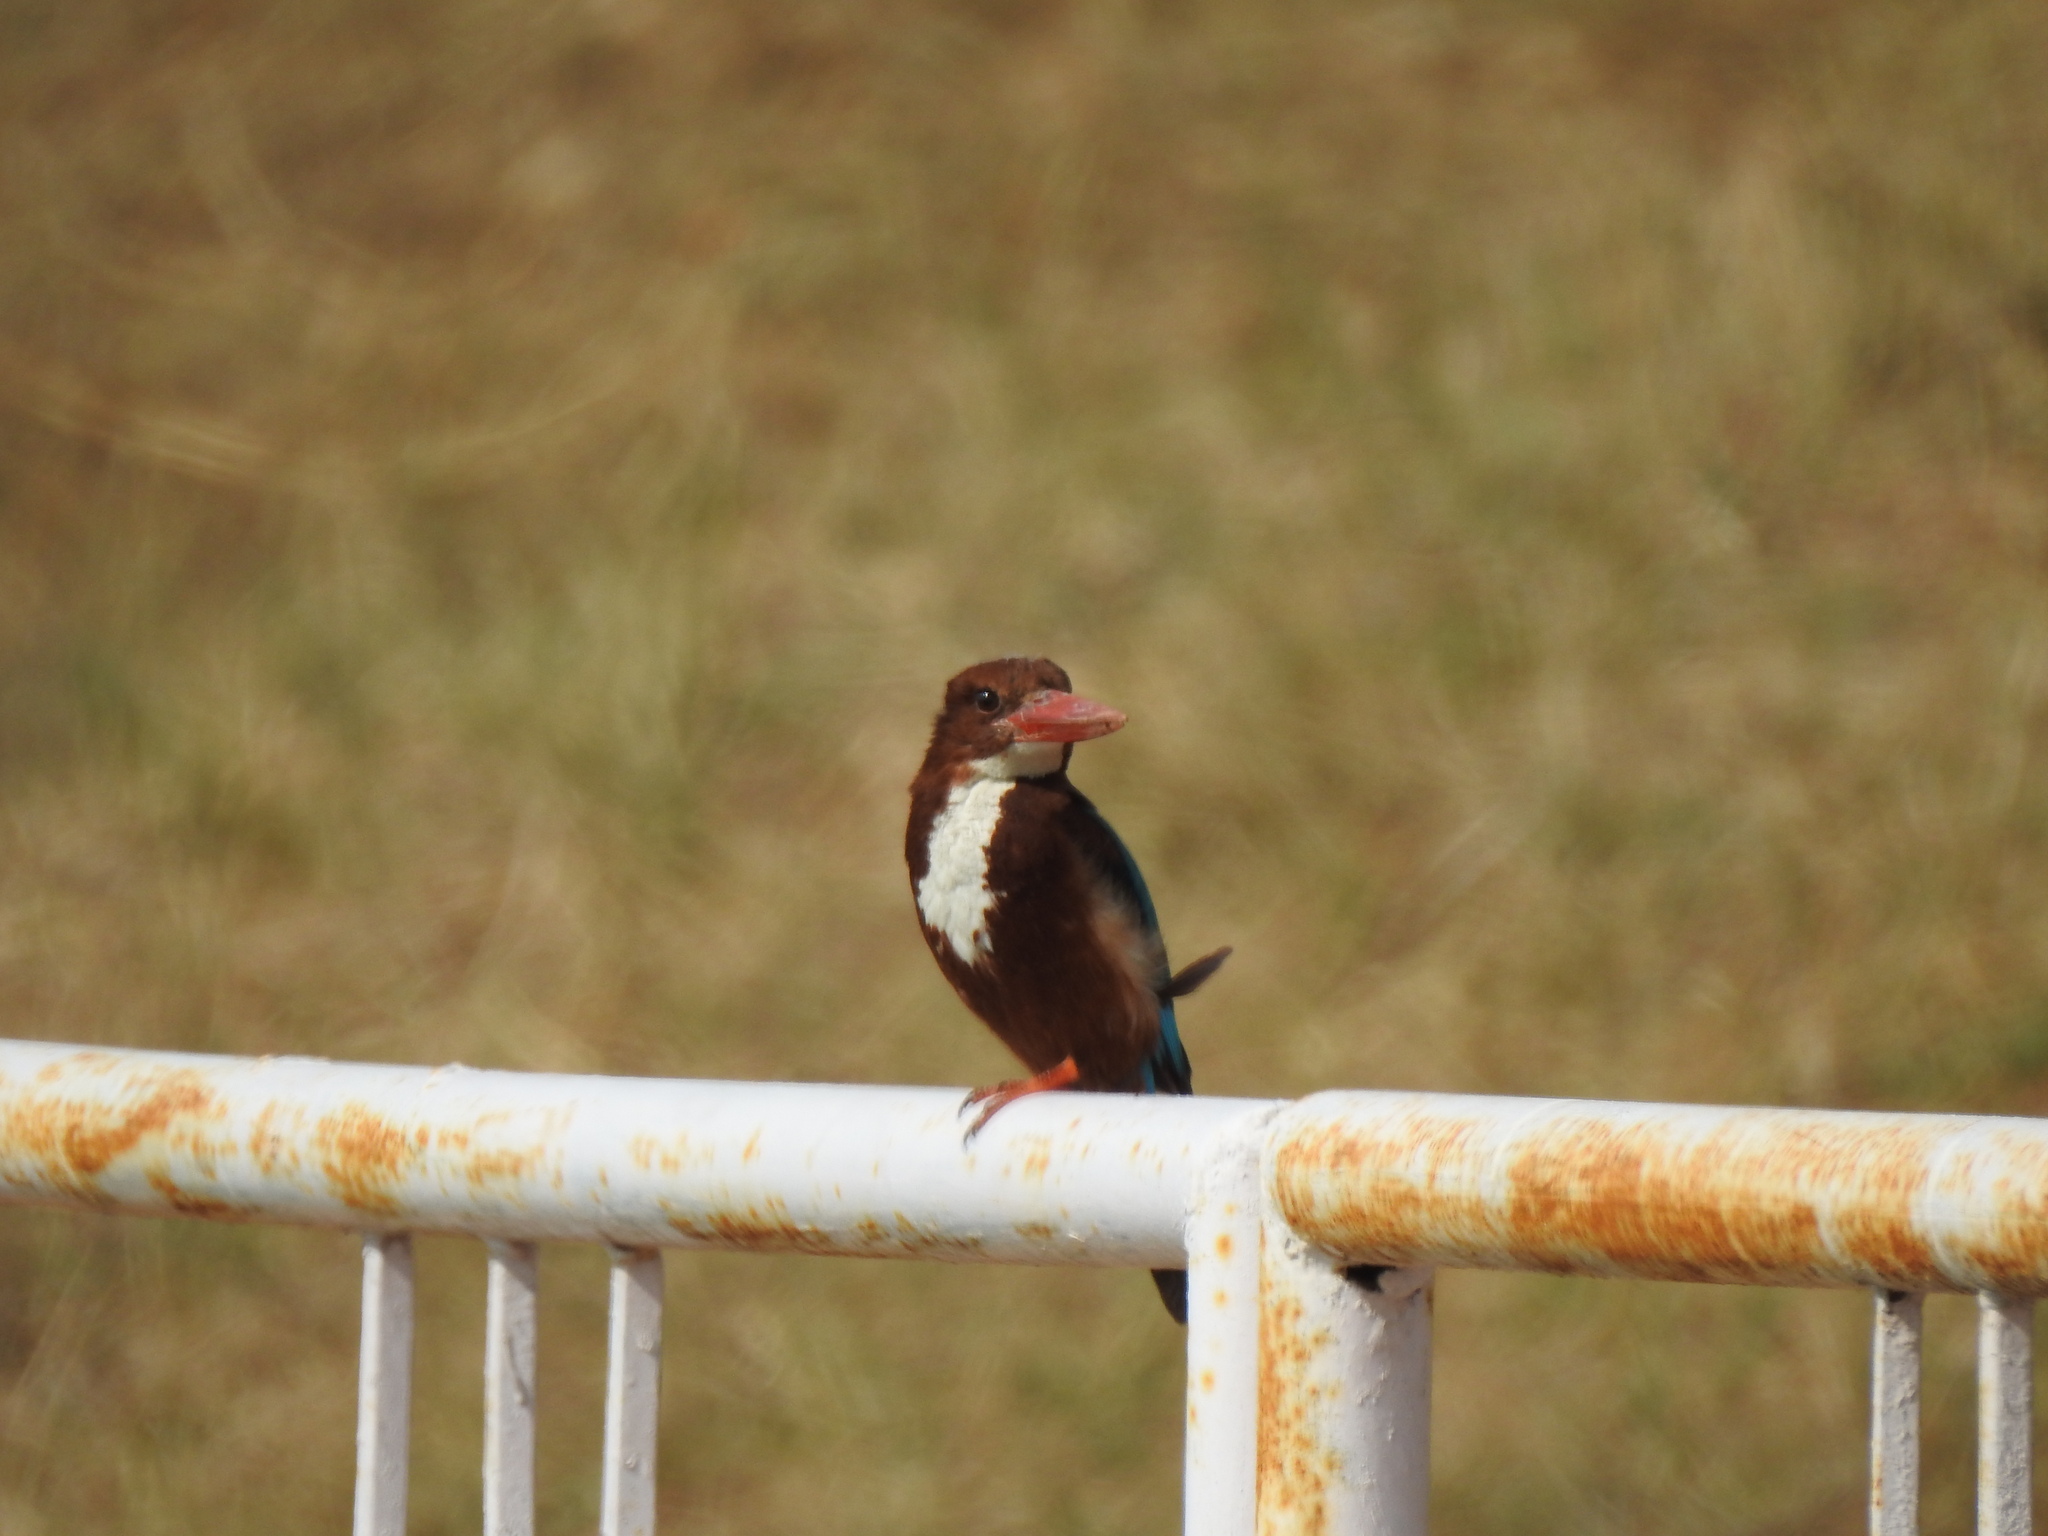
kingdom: Animalia
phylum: Chordata
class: Aves
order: Coraciiformes
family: Alcedinidae
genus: Halcyon
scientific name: Halcyon smyrnensis
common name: White-throated kingfisher
